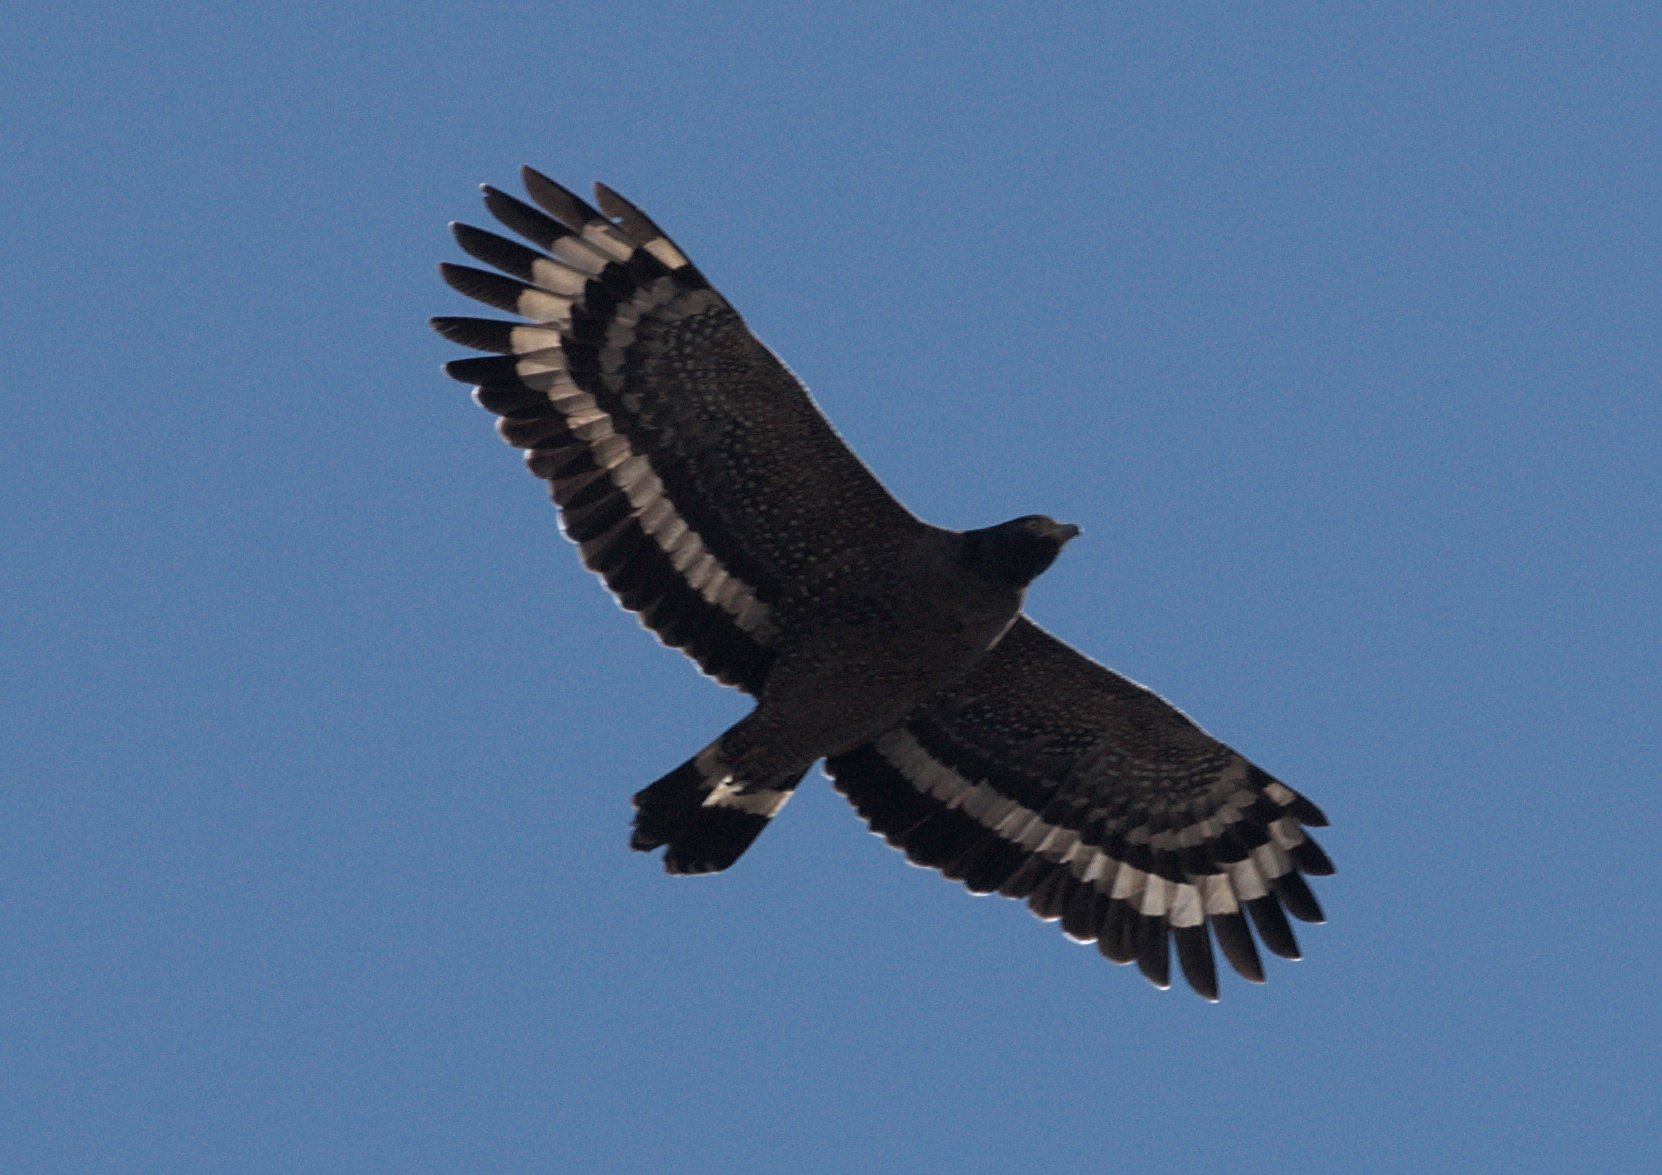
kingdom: Animalia
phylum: Chordata
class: Aves
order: Accipitriformes
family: Accipitridae
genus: Spilornis
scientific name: Spilornis cheela
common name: Crested serpent eagle
